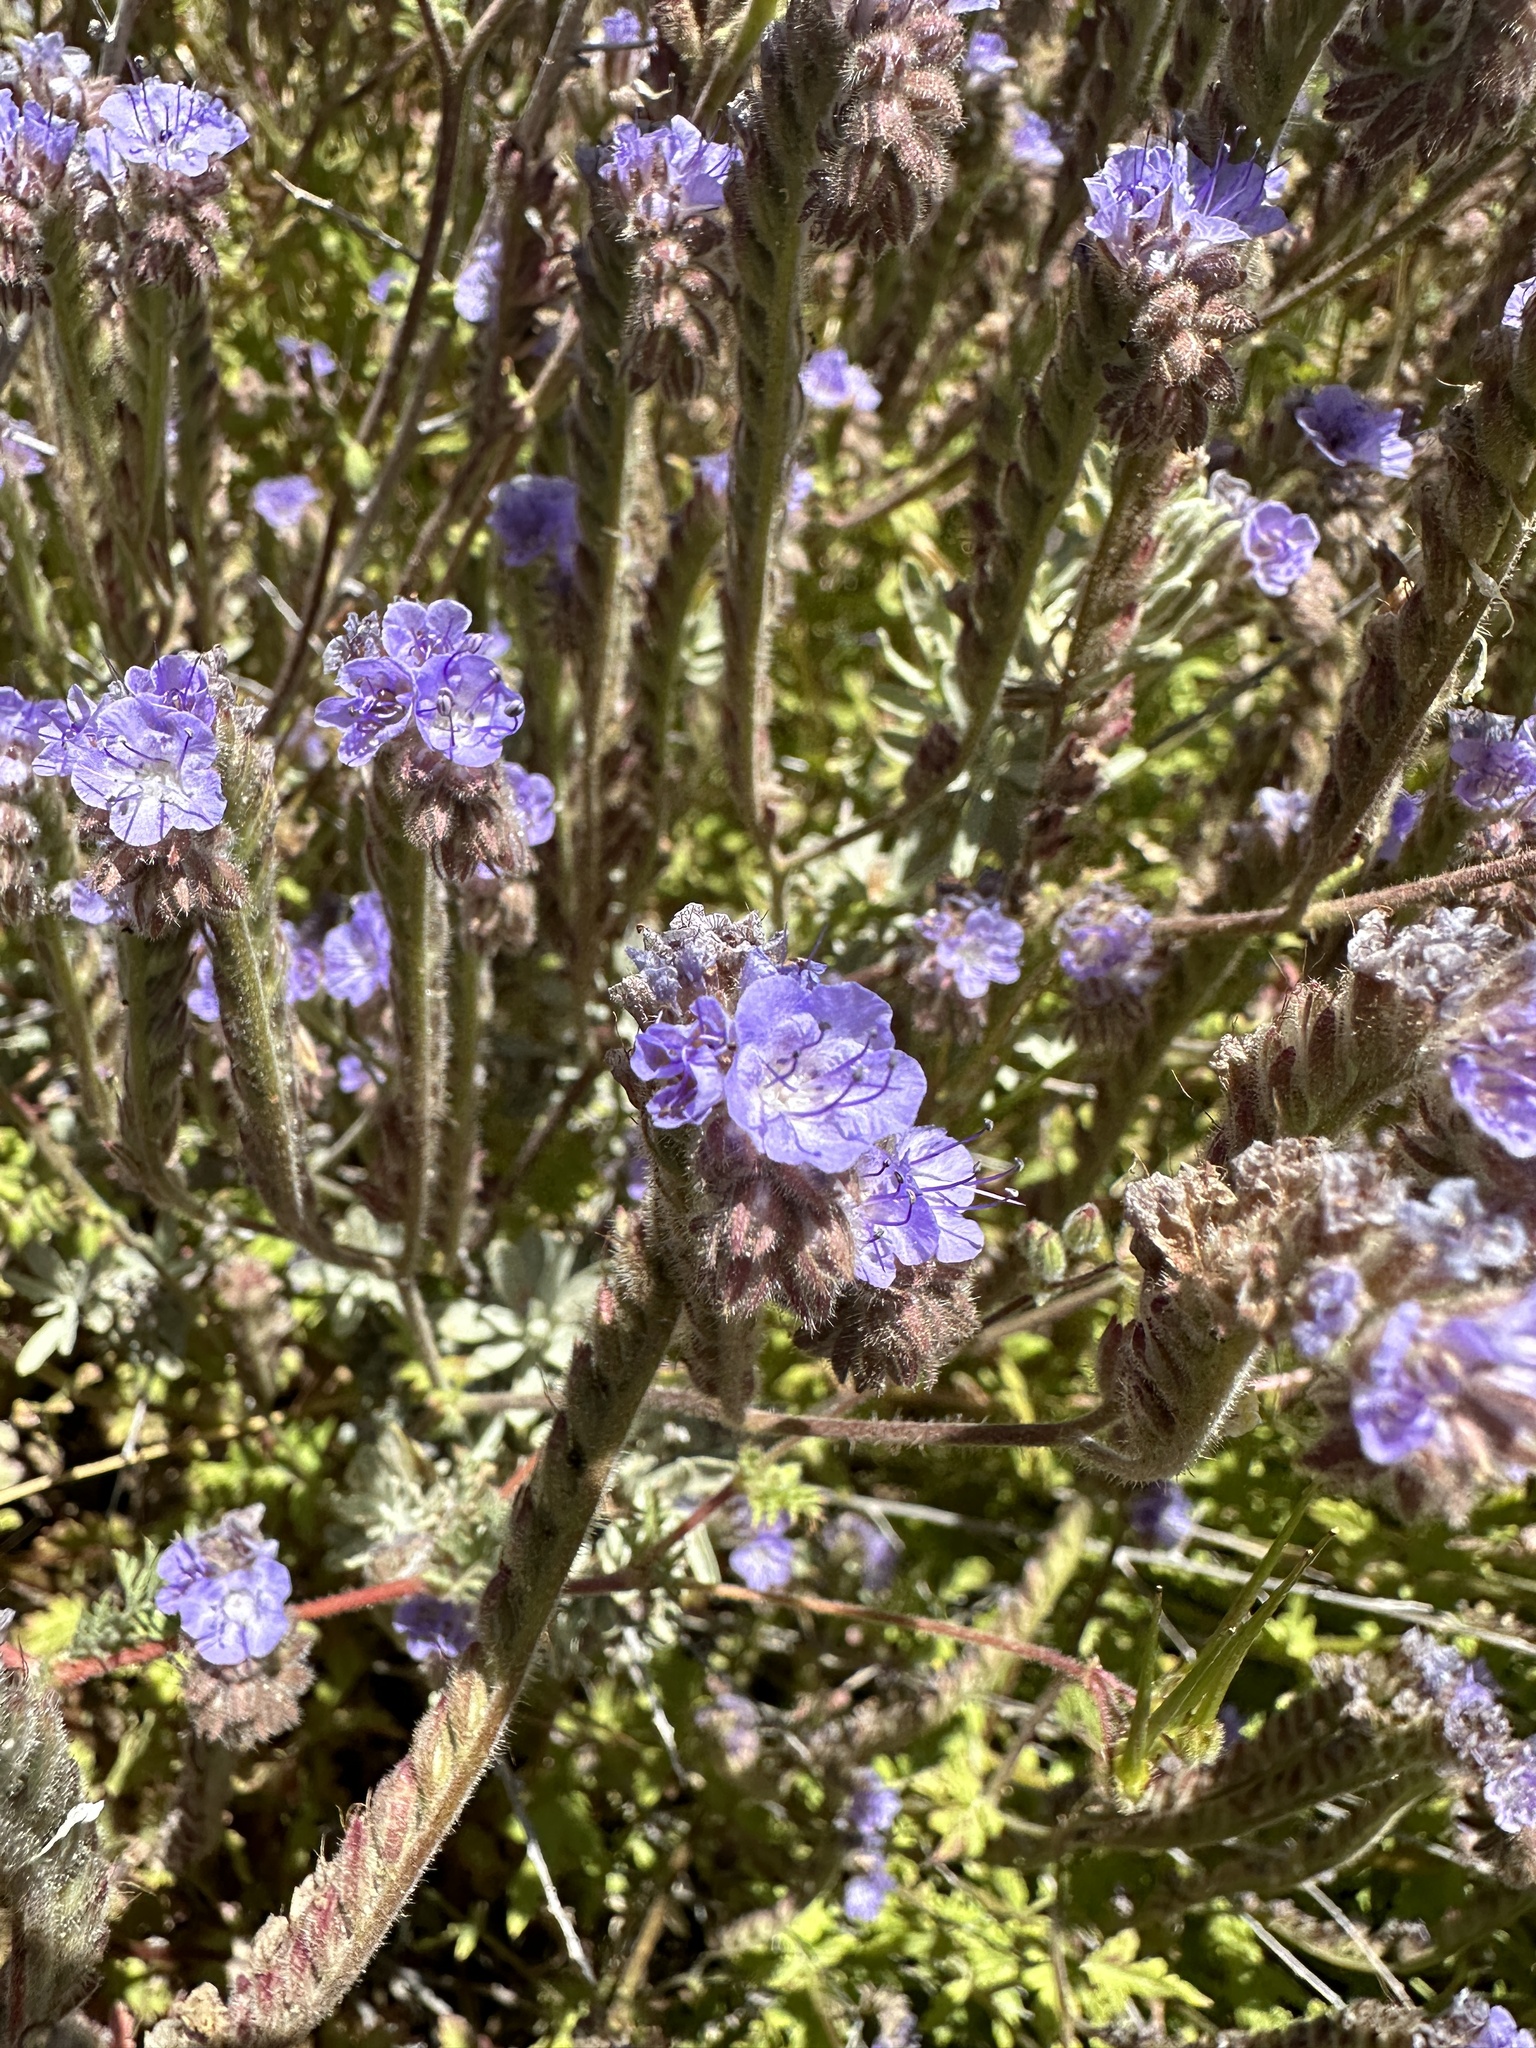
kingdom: Plantae
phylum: Tracheophyta
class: Magnoliopsida
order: Boraginales
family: Hydrophyllaceae
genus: Phacelia
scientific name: Phacelia distans
